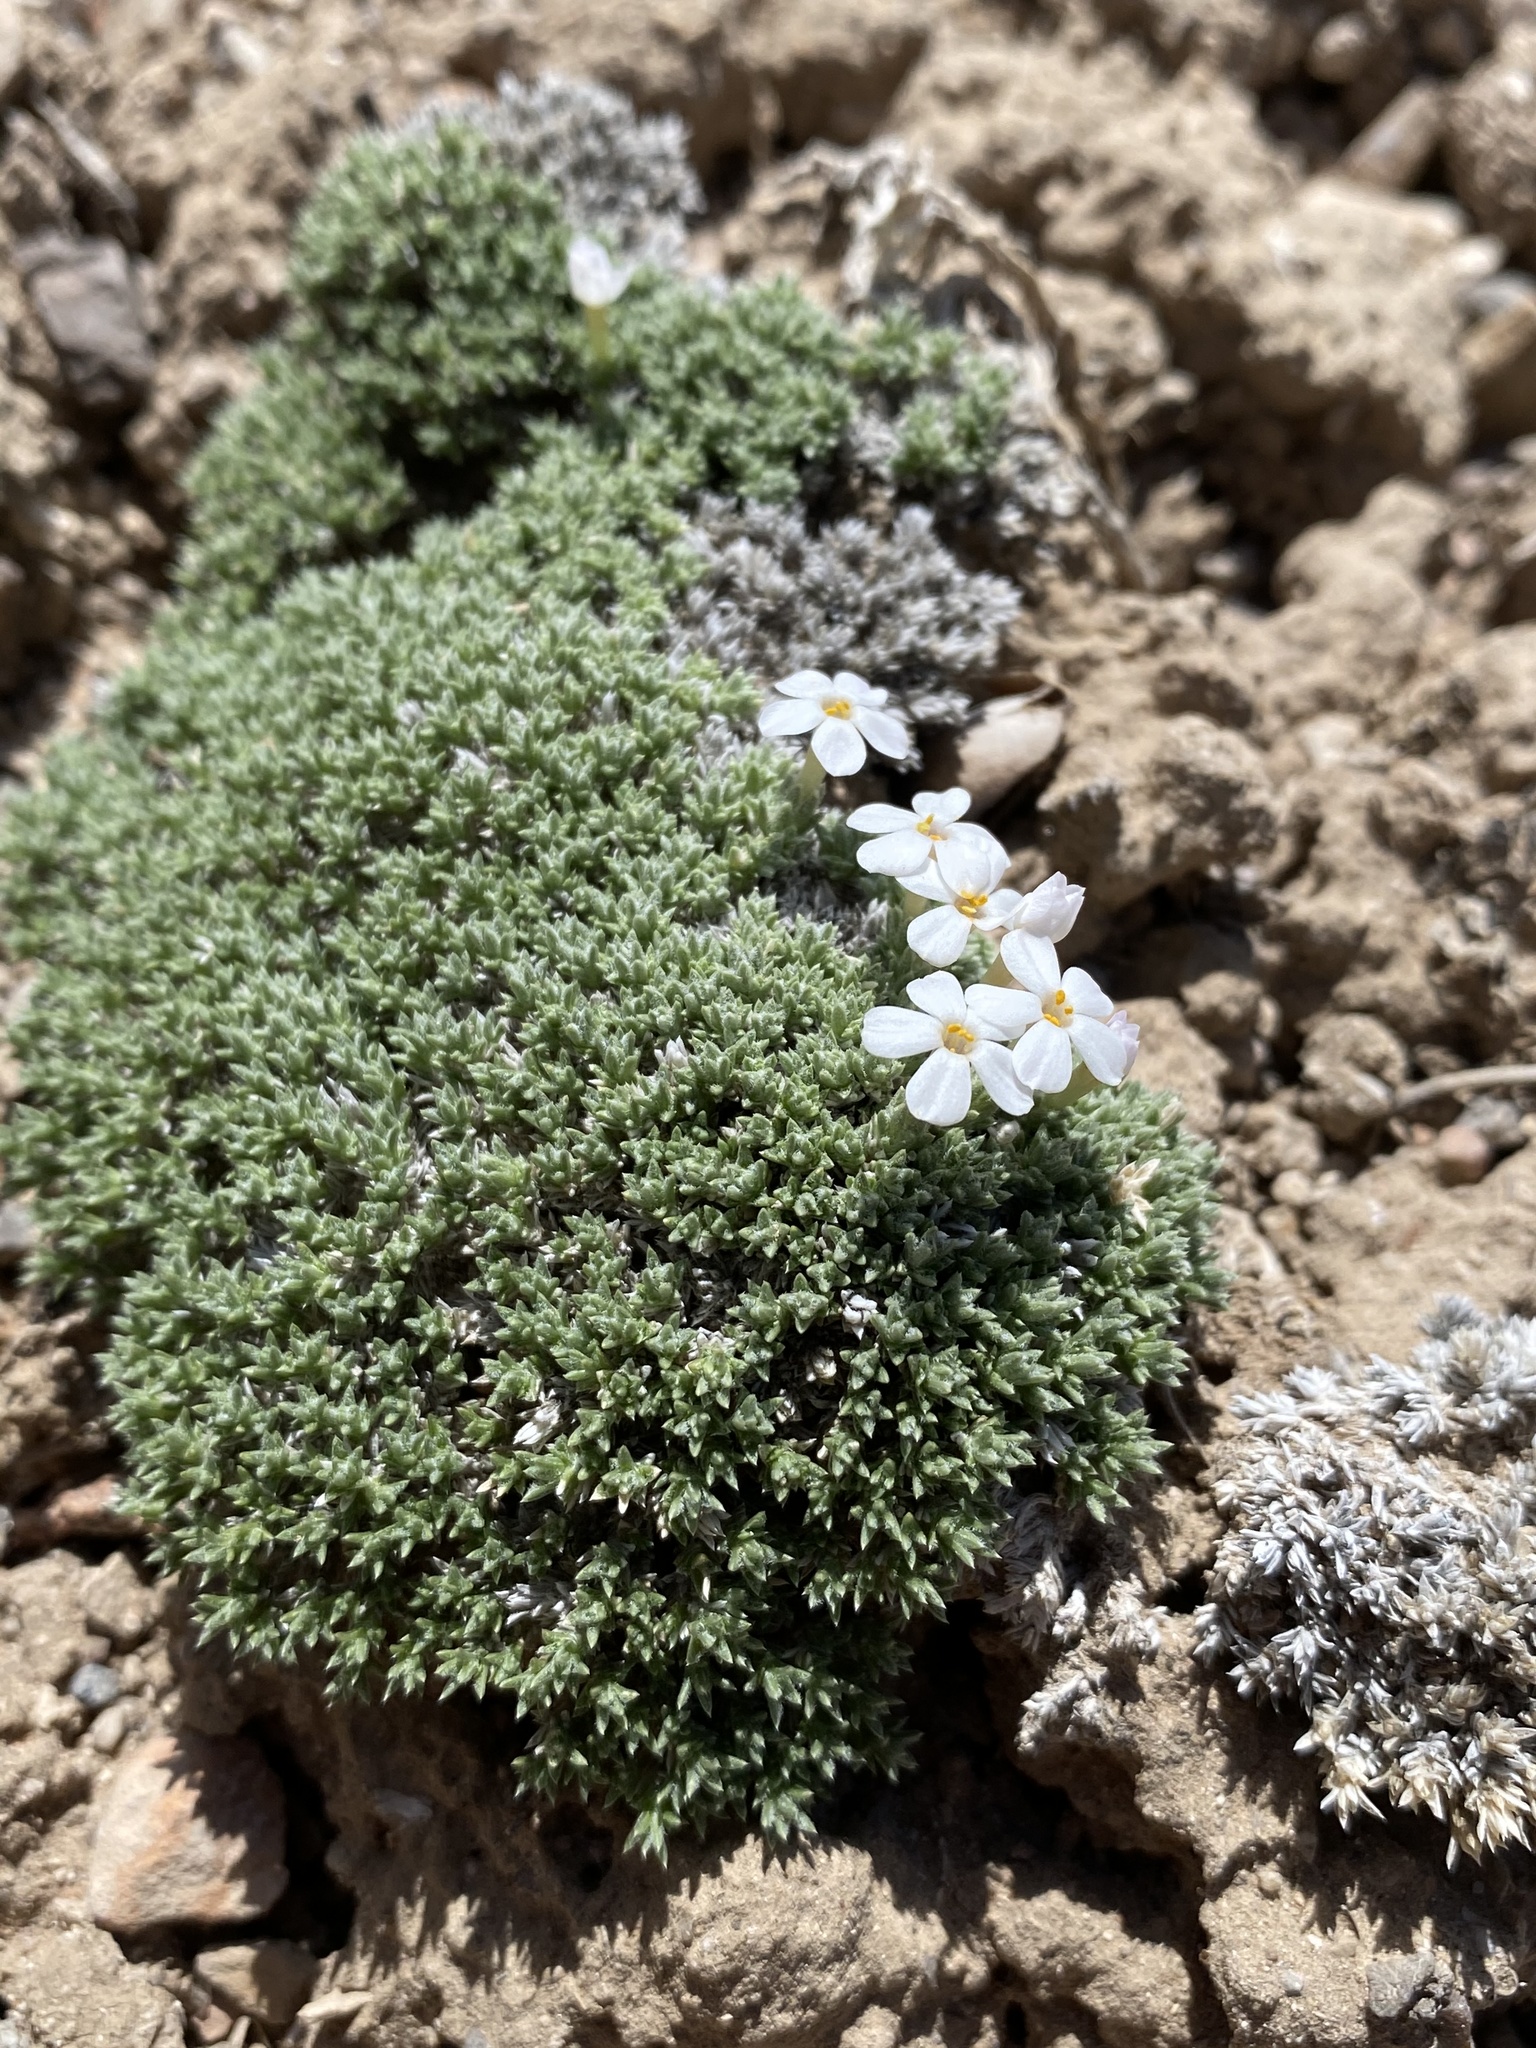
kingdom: Plantae
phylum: Tracheophyta
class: Magnoliopsida
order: Ericales
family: Polemoniaceae
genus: Phlox
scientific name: Phlox griseola
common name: Gray-leaf phlox
